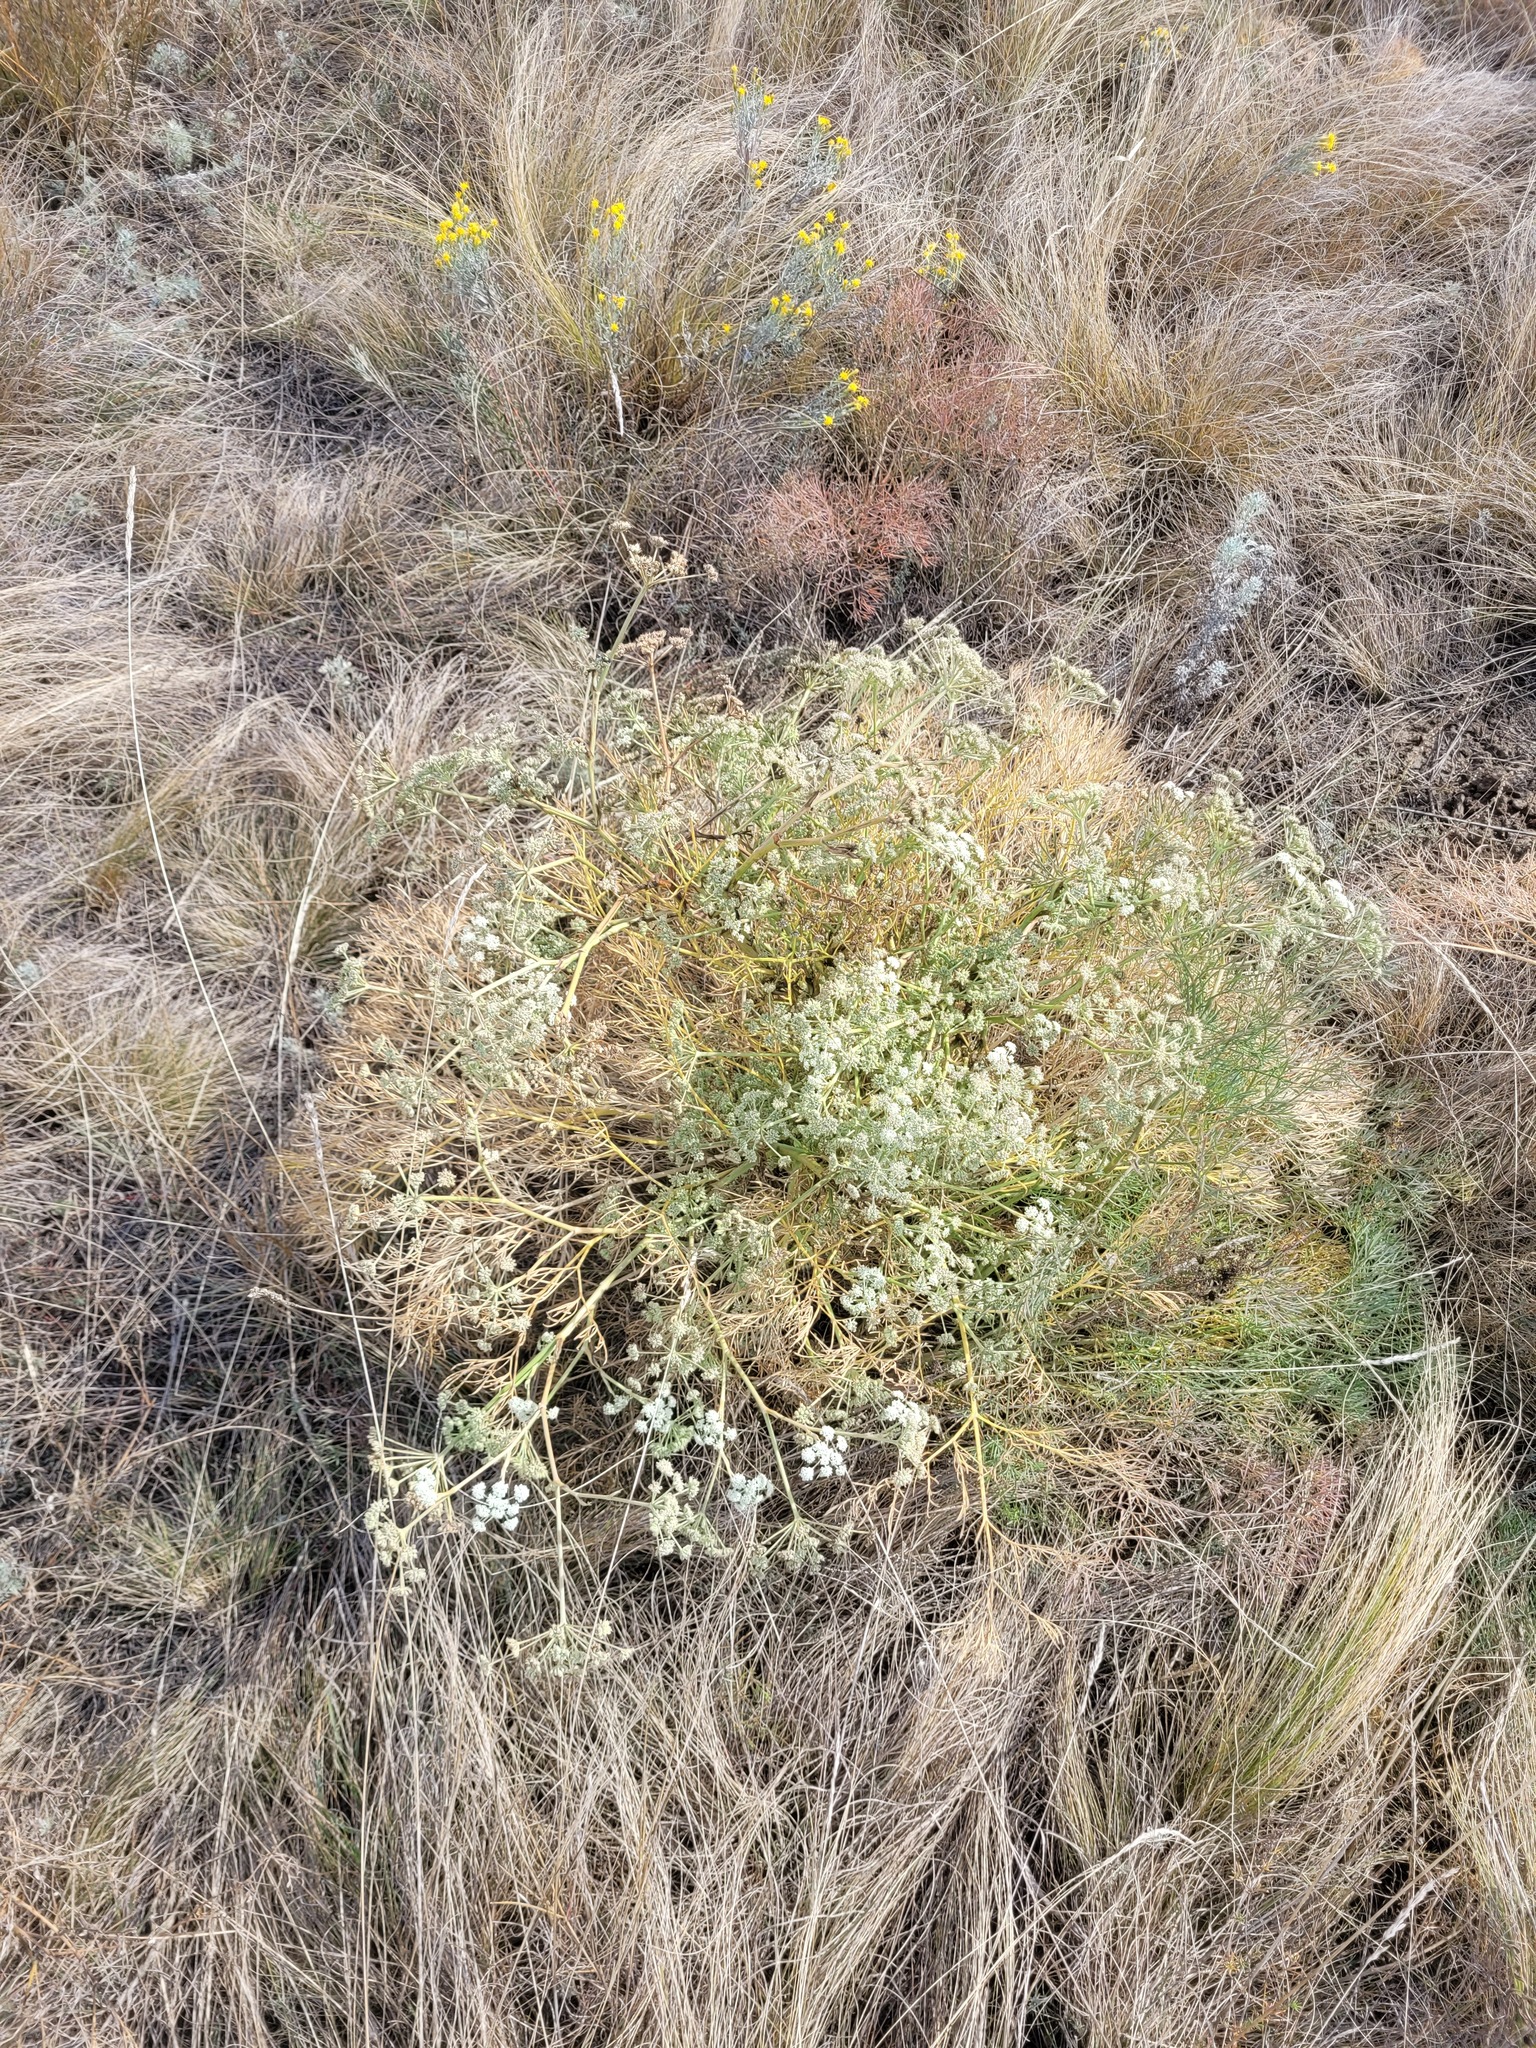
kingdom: Plantae
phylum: Tracheophyta
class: Magnoliopsida
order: Apiales
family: Apiaceae
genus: Seseli
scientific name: Seseli arenarium
